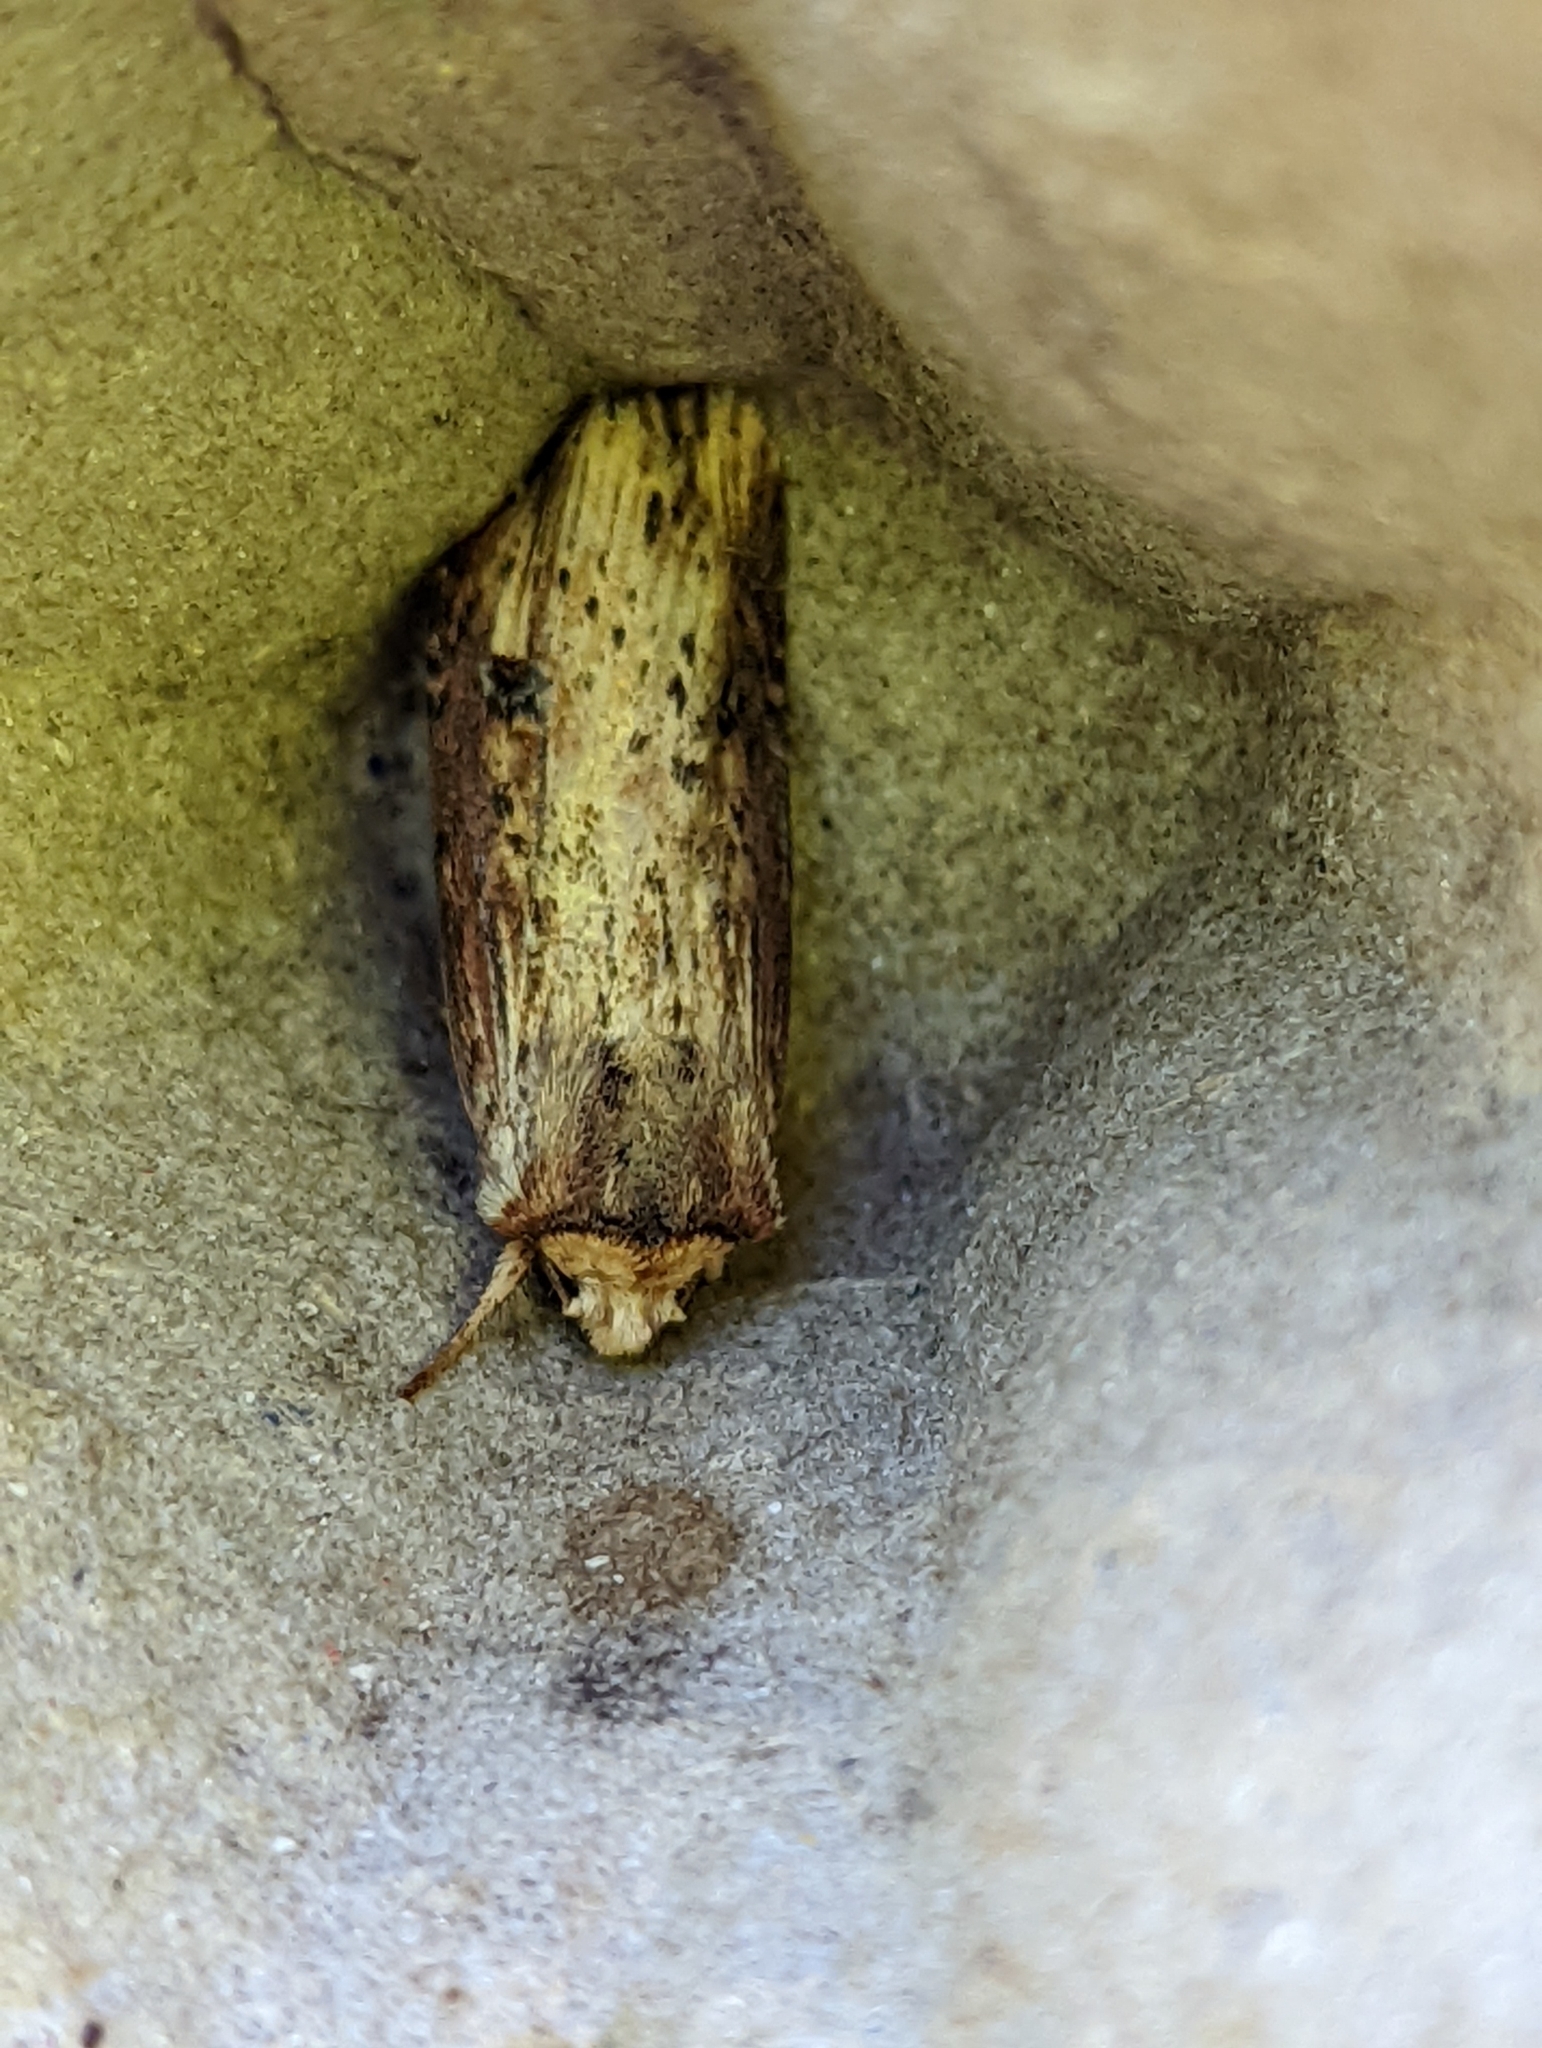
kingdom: Animalia
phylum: Arthropoda
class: Insecta
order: Lepidoptera
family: Noctuidae
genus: Axylia
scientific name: Axylia putris
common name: Flame
